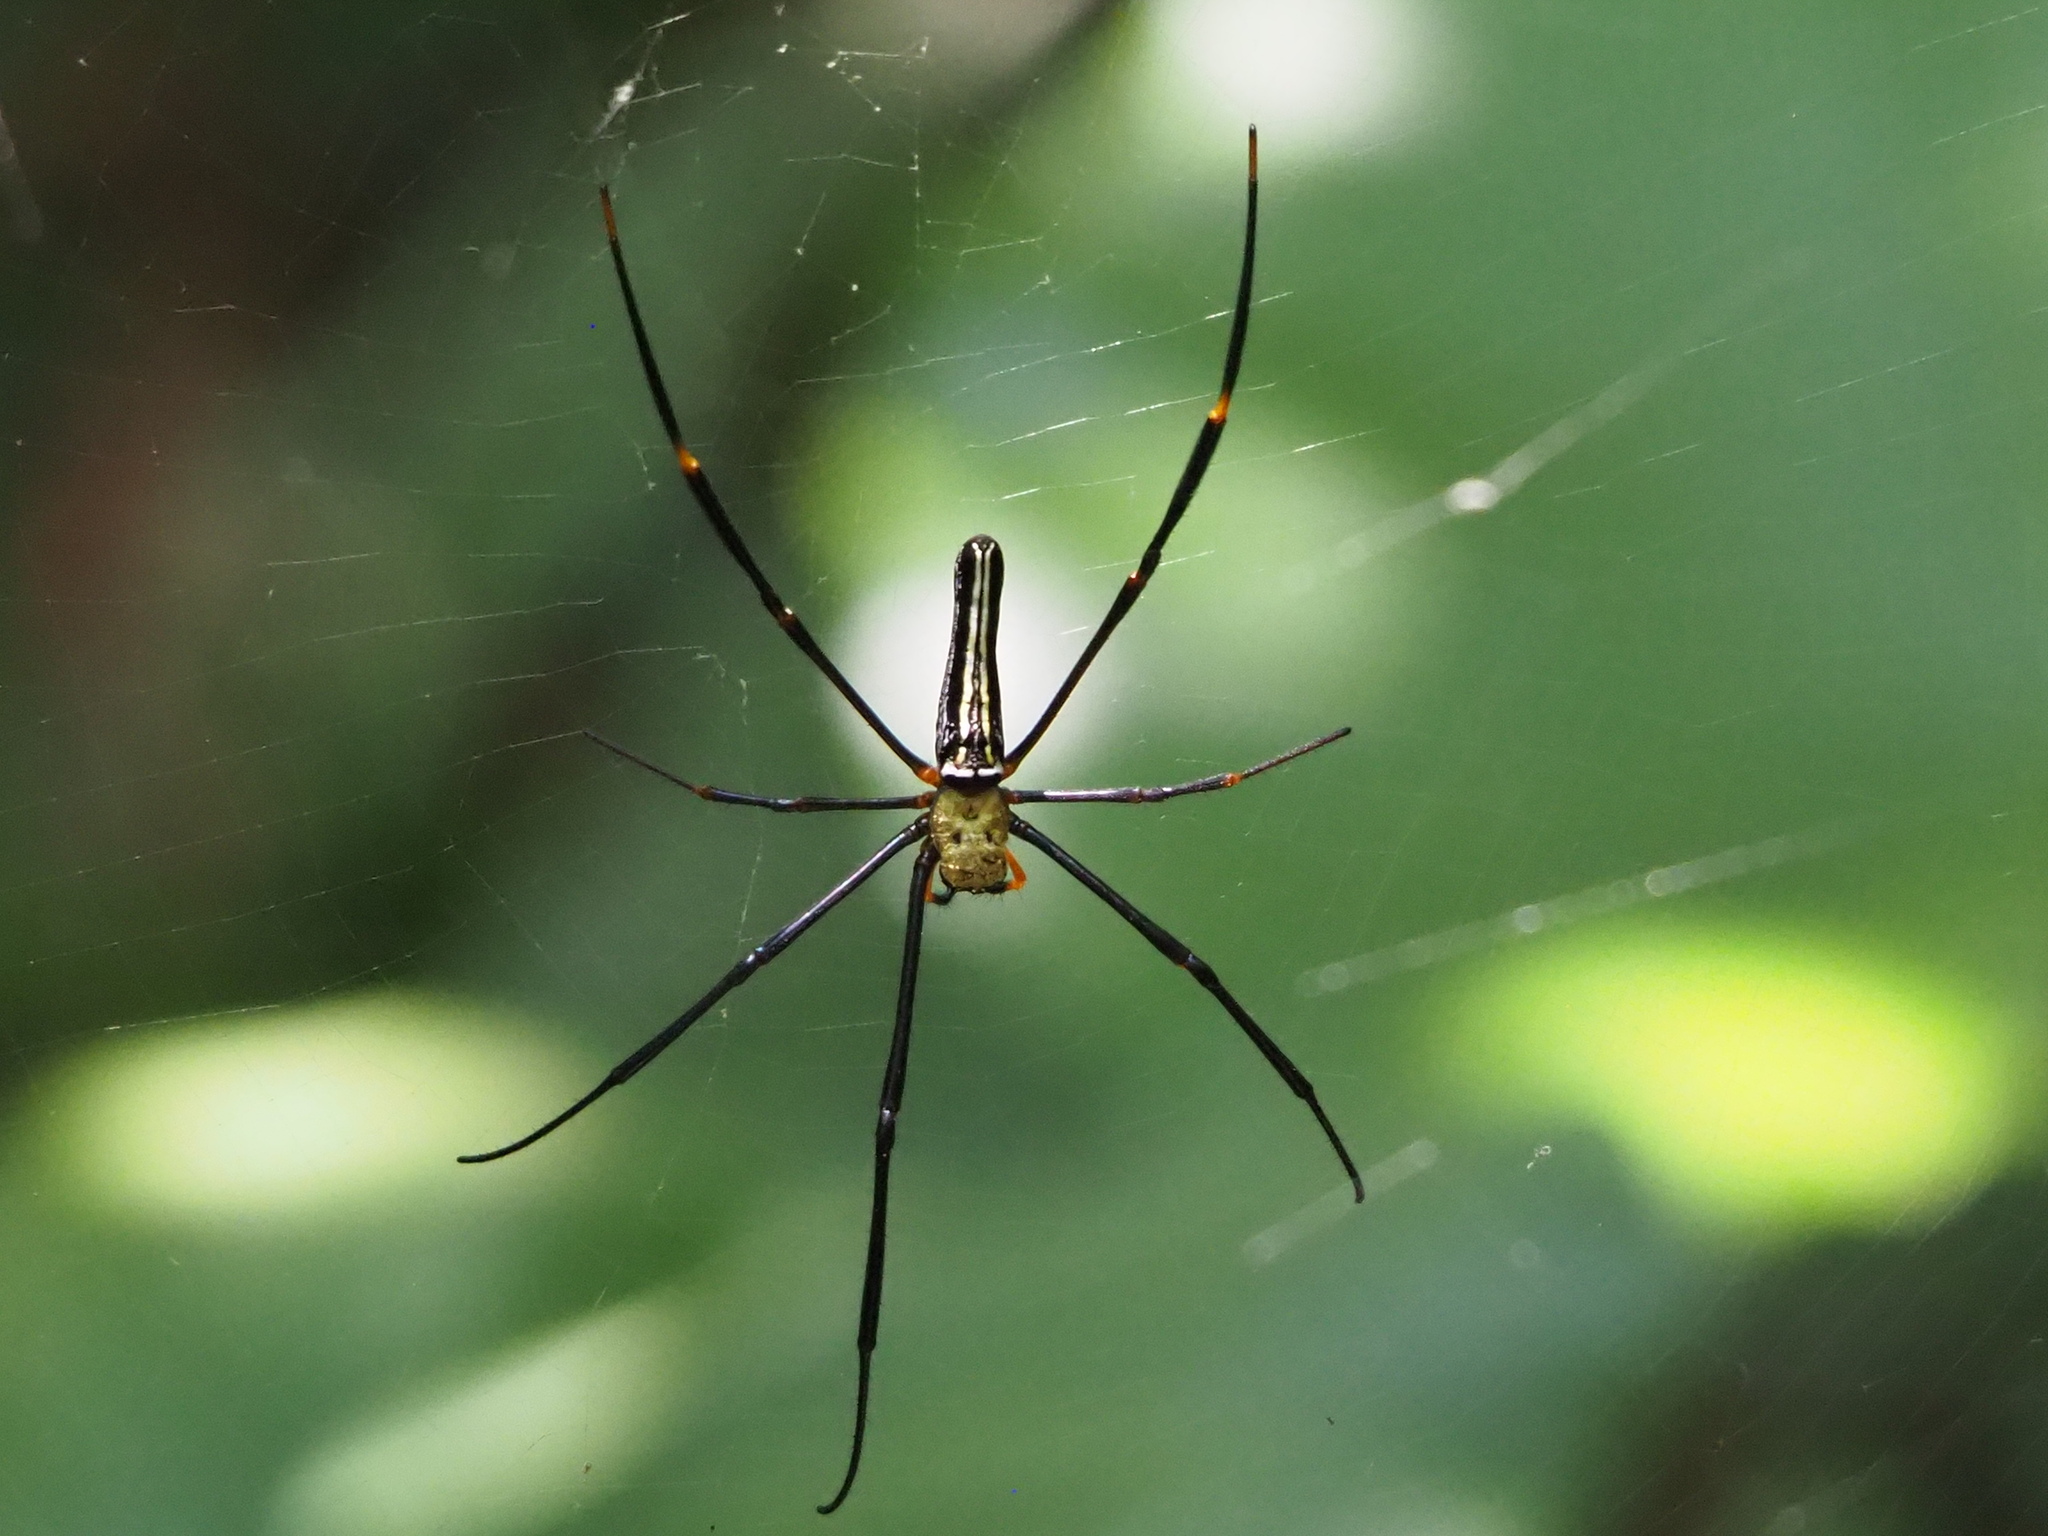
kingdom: Animalia
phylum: Arthropoda
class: Arachnida
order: Araneae
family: Araneidae
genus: Nephila
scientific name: Nephila pilipes
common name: Giant golden orb weaver
